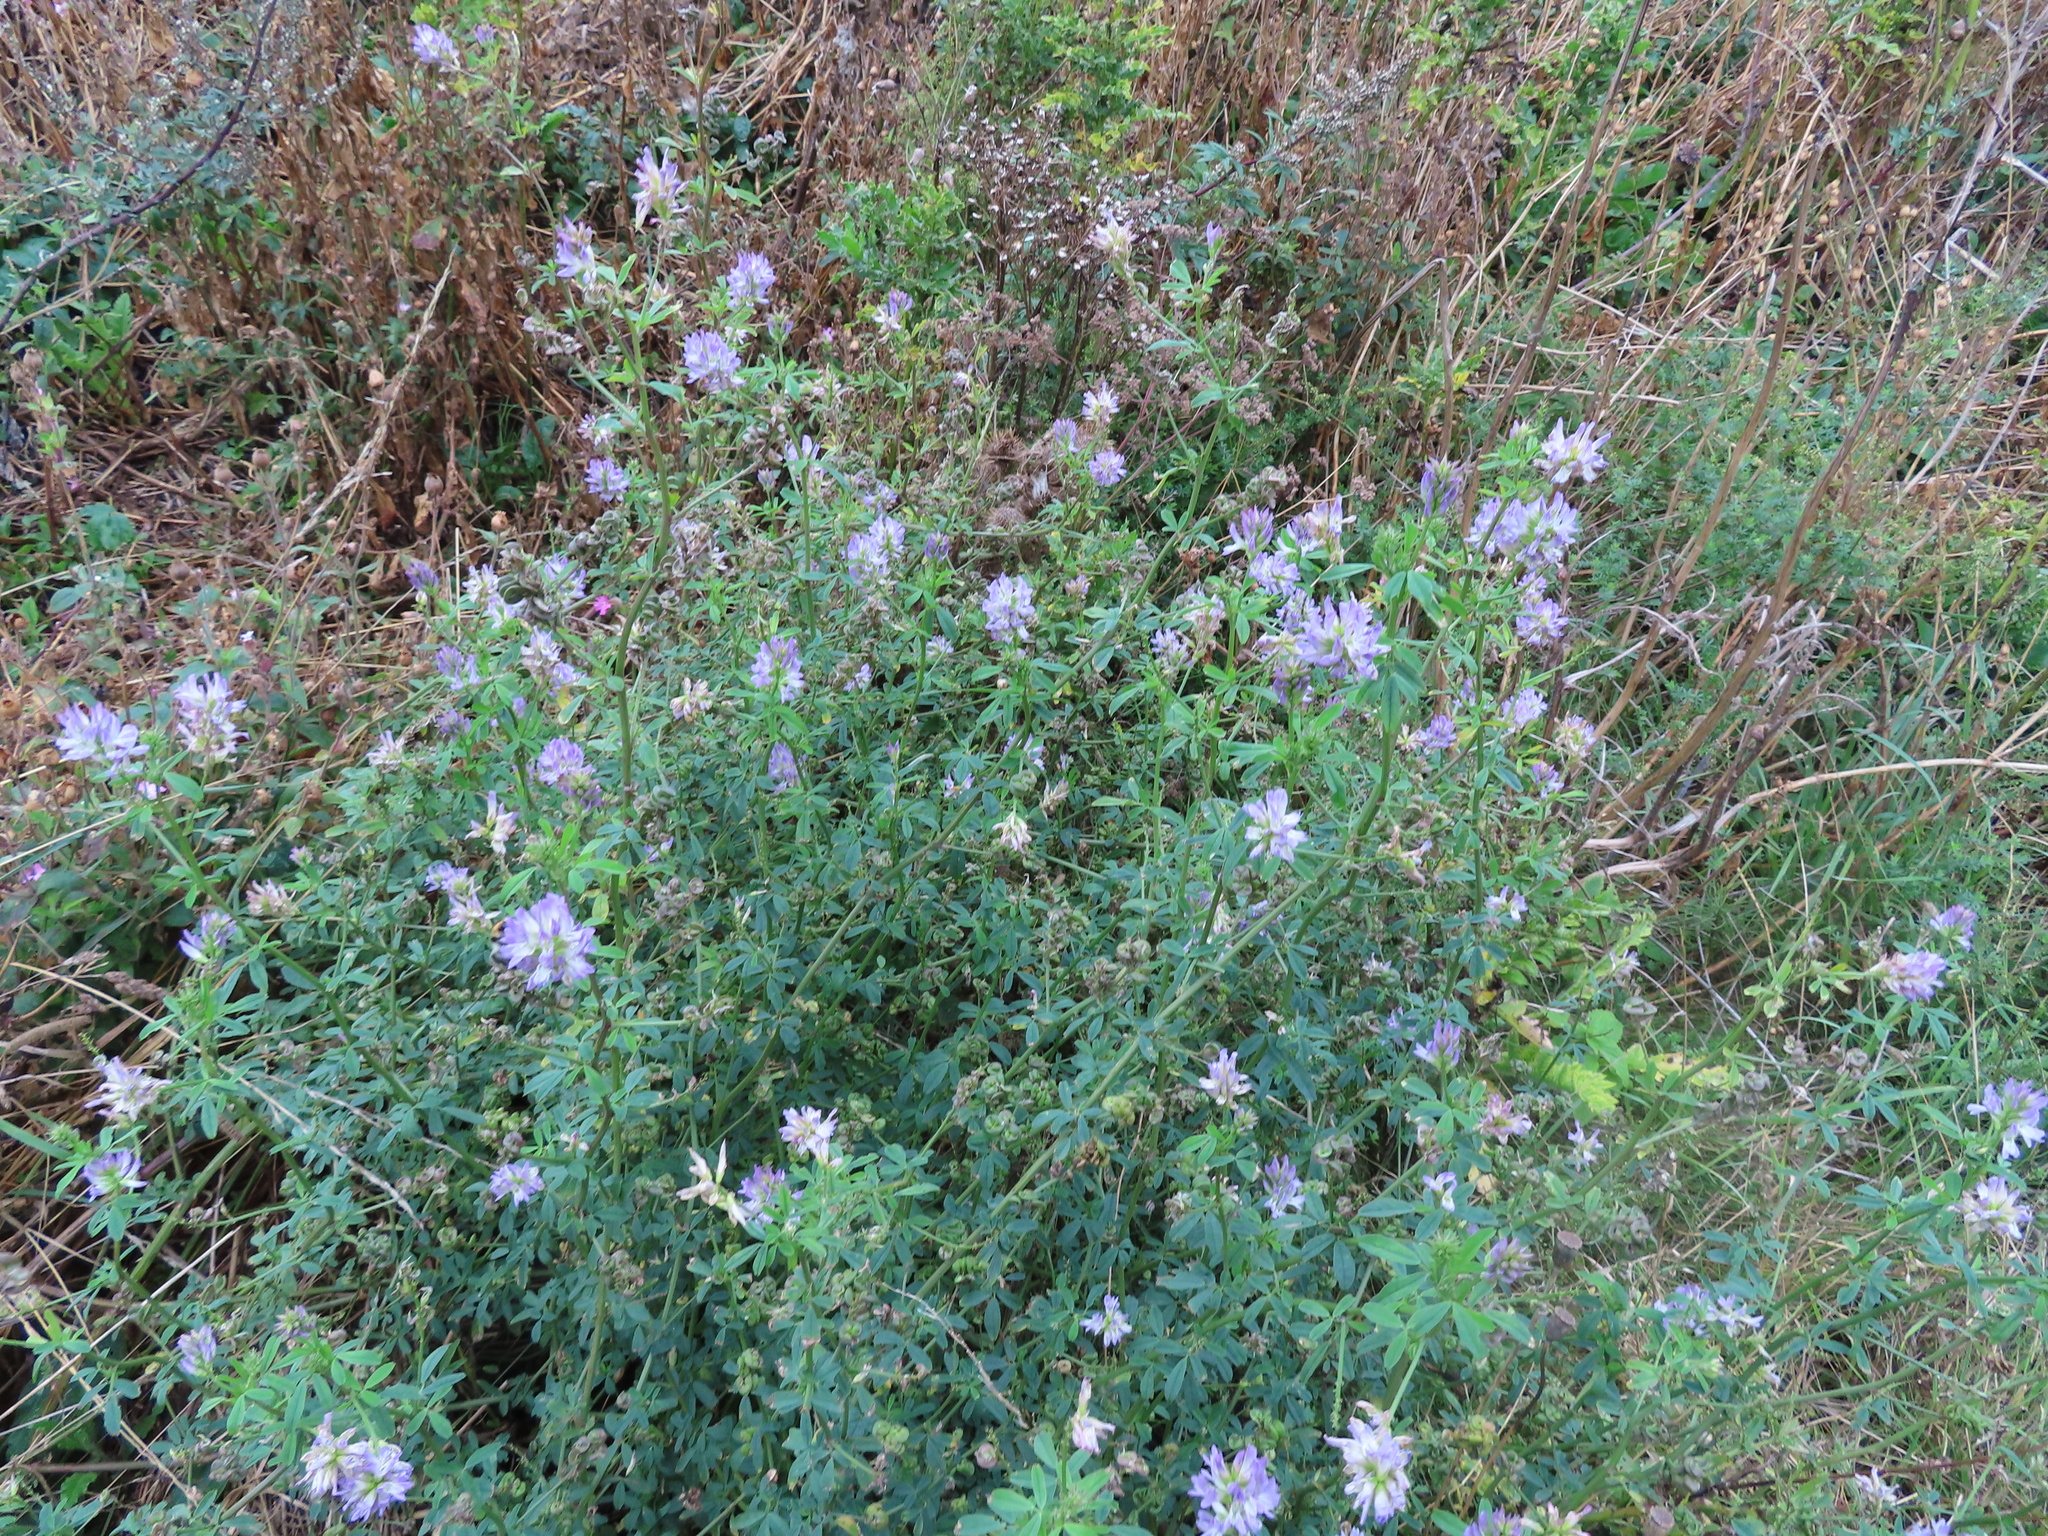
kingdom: Plantae
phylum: Tracheophyta
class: Magnoliopsida
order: Fabales
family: Fabaceae
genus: Medicago
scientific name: Medicago sativa
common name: Alfalfa
